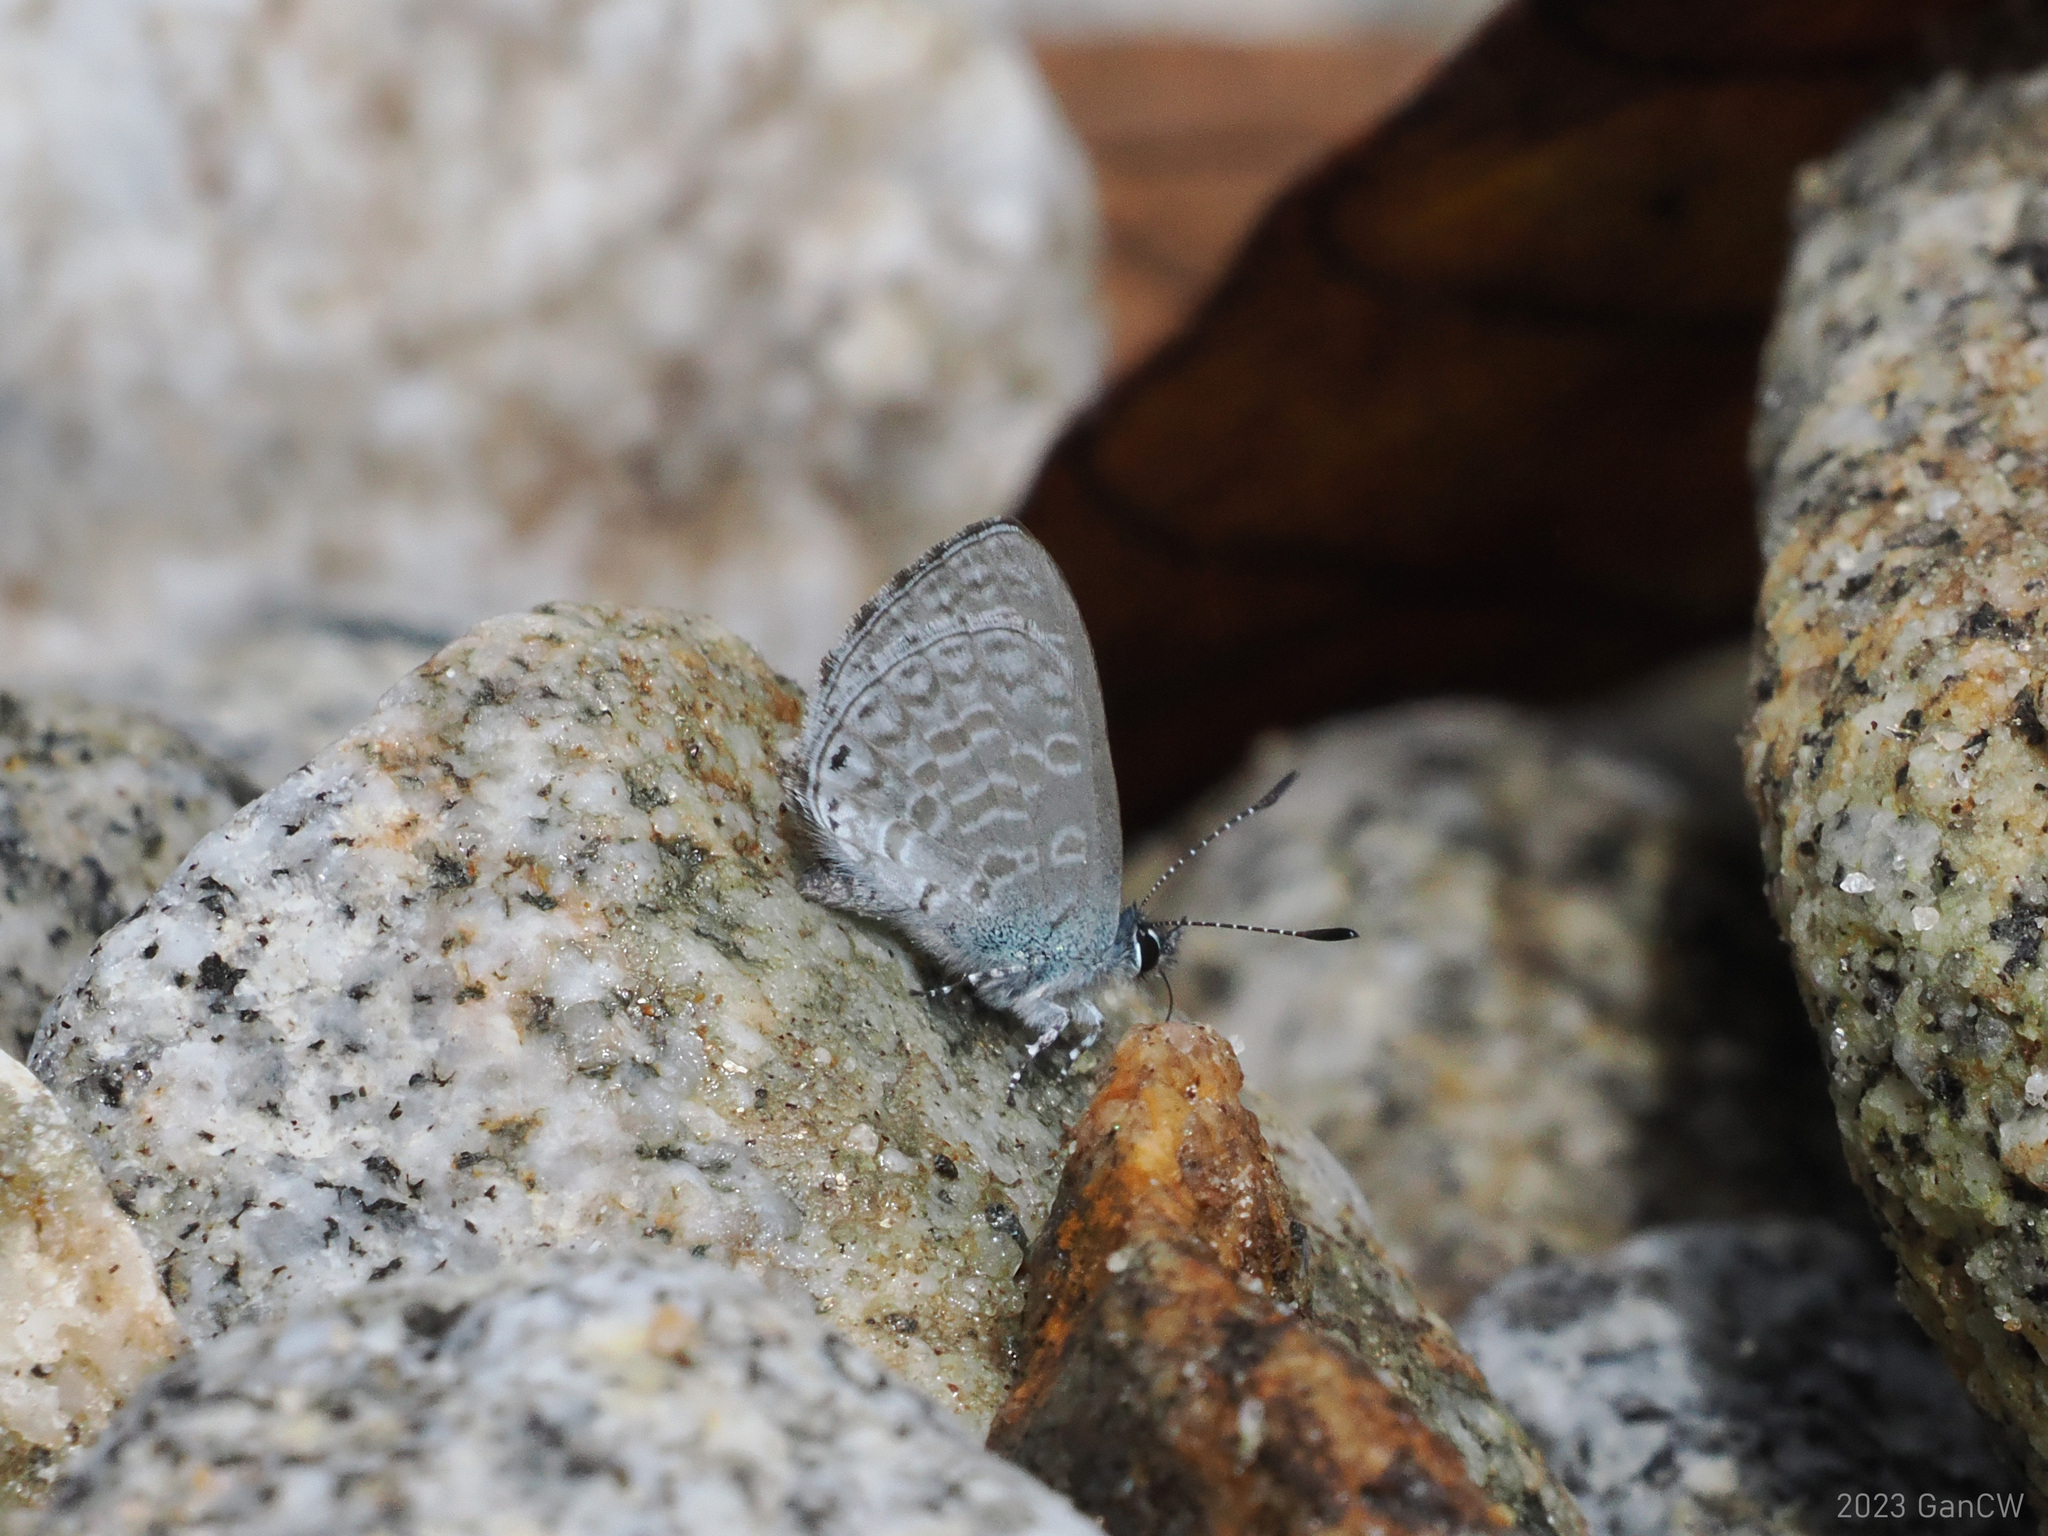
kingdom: Animalia
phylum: Arthropoda
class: Insecta
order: Lepidoptera
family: Lycaenidae
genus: Monodontides
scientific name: Monodontides
